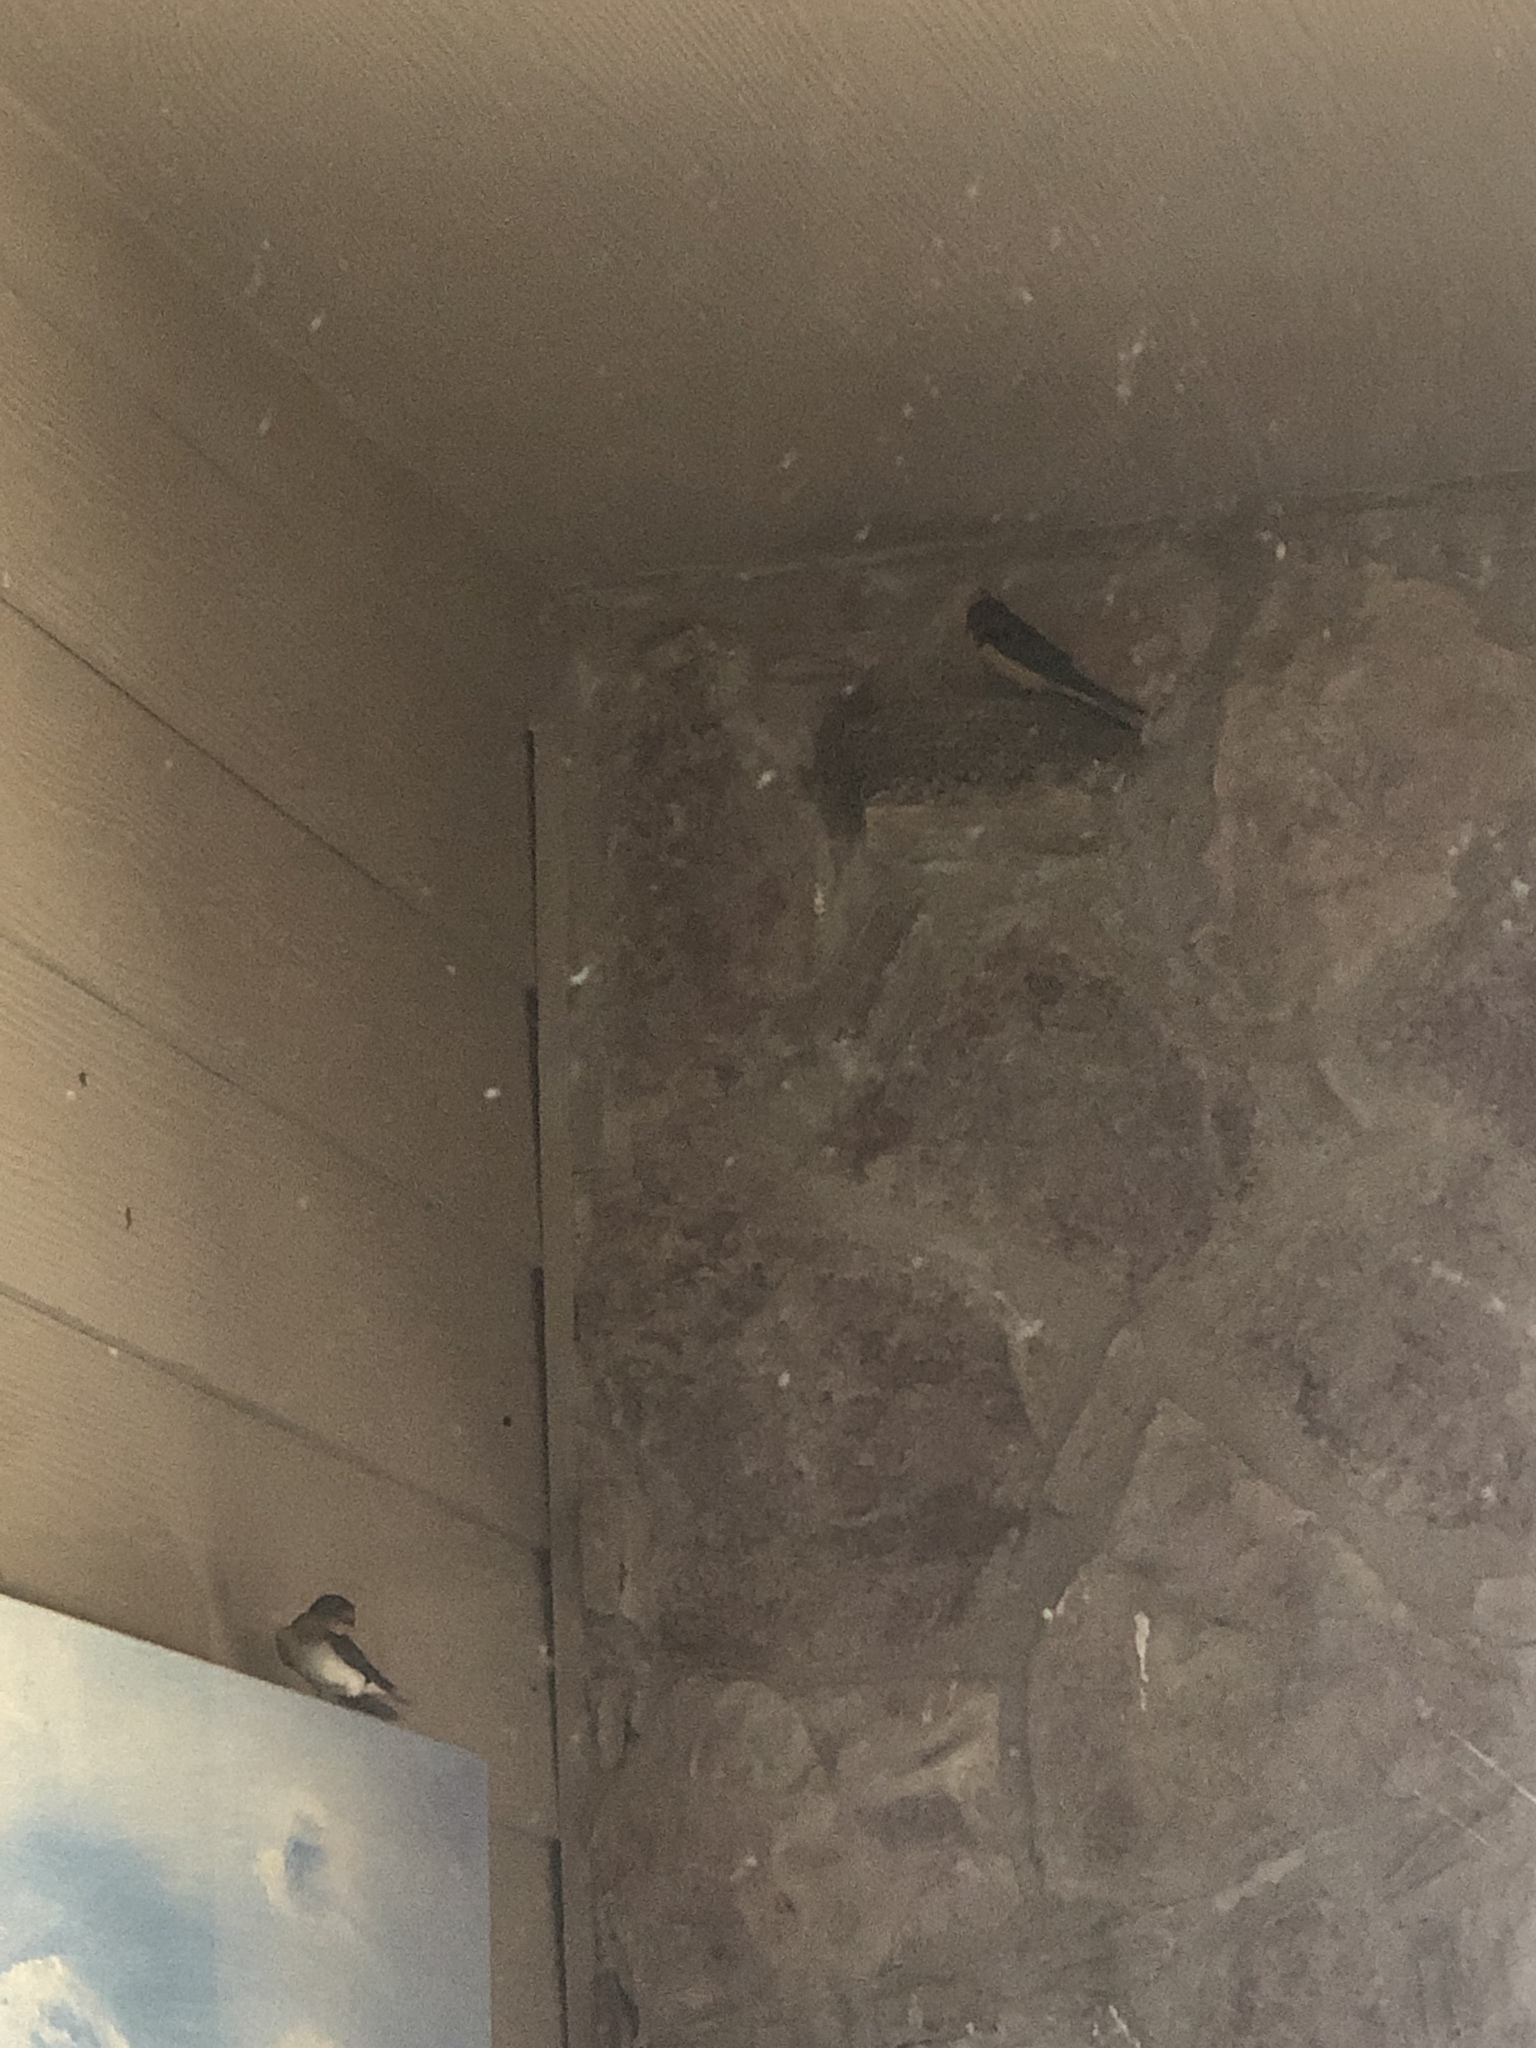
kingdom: Animalia
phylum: Chordata
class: Aves
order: Passeriformes
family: Hirundinidae
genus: Hirundo
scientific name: Hirundo rustica
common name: Barn swallow
